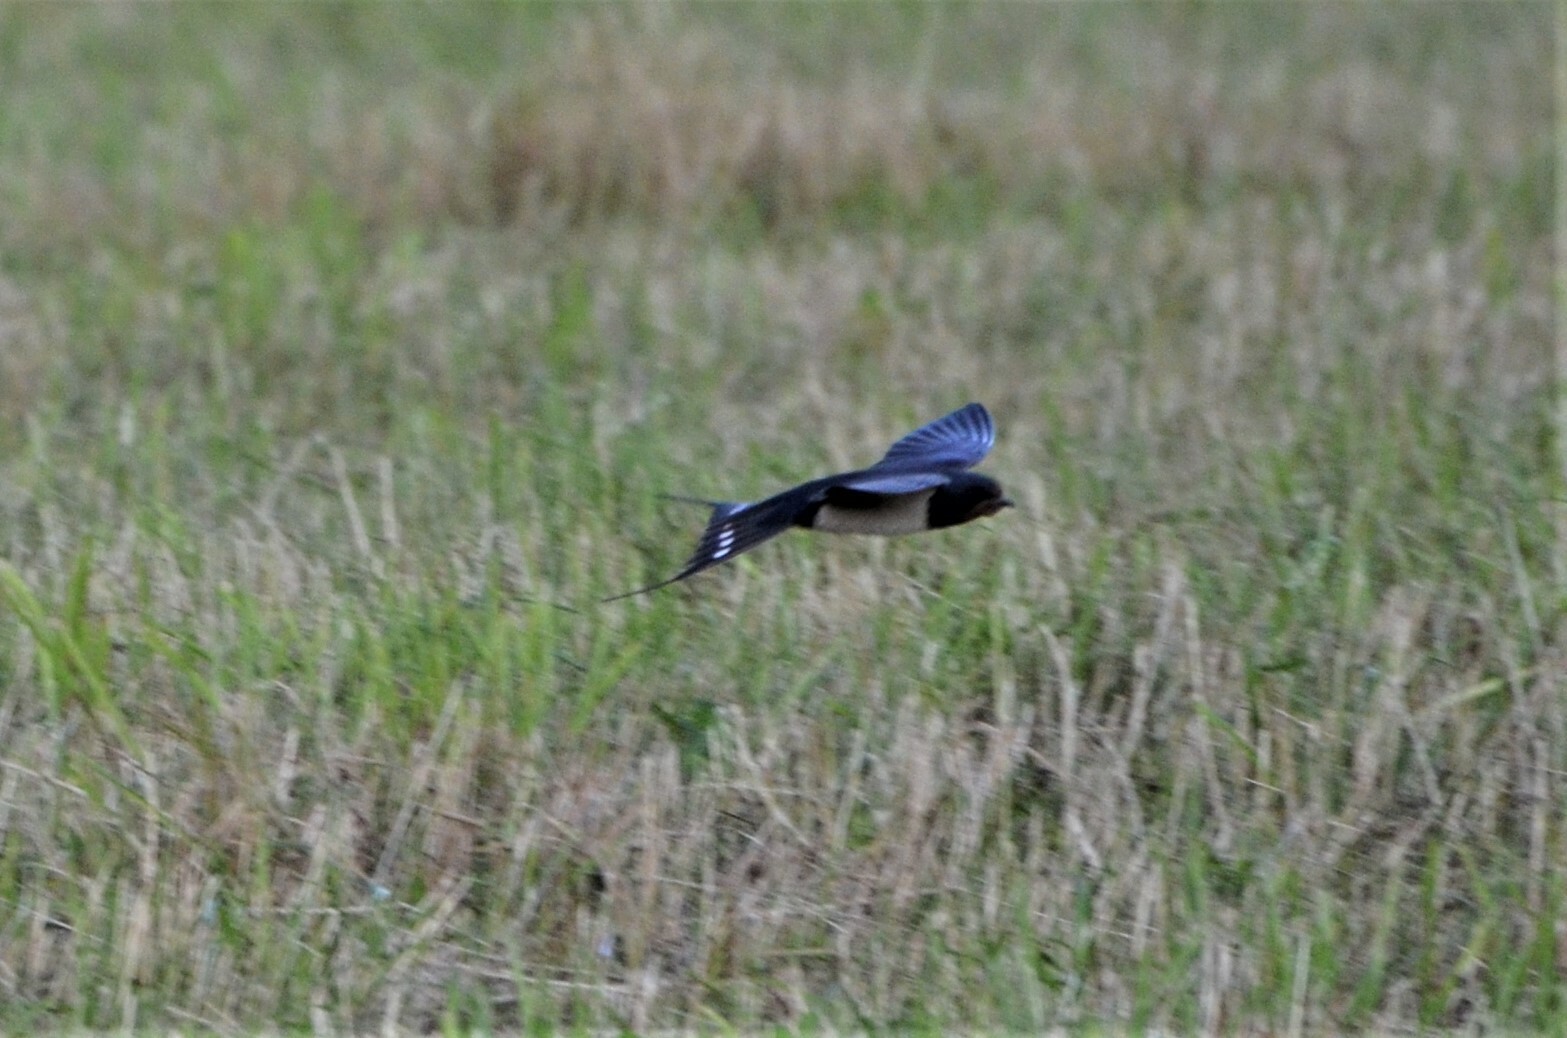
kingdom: Animalia
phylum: Chordata
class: Aves
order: Passeriformes
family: Hirundinidae
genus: Hirundo
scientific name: Hirundo rustica
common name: Barn swallow
